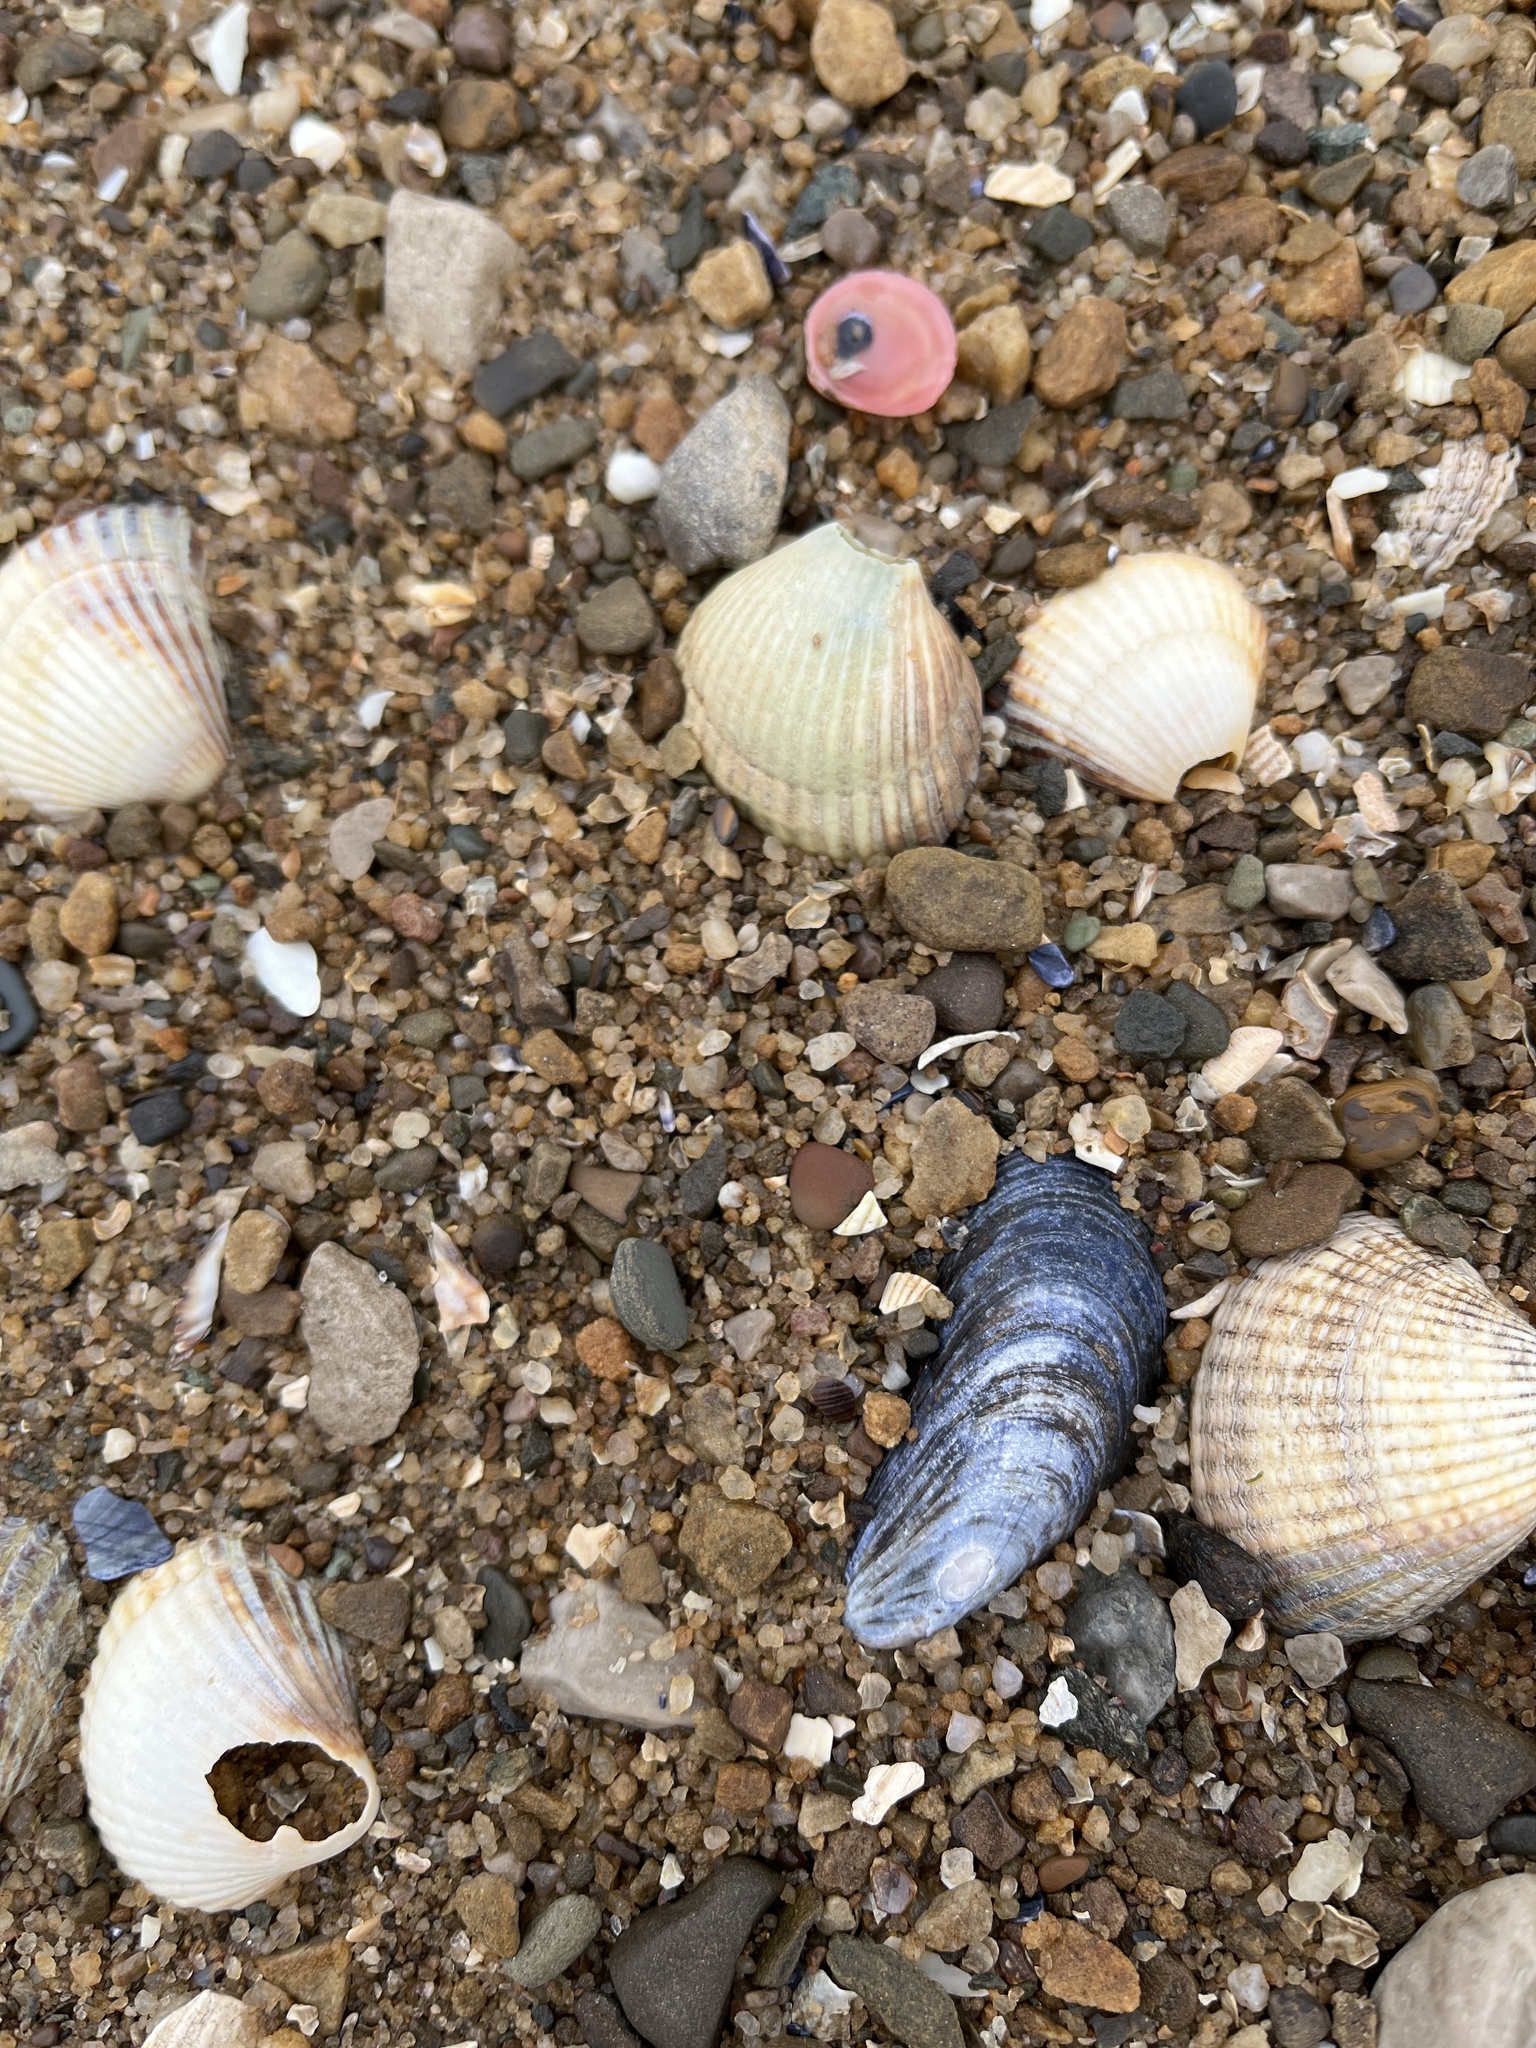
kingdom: Animalia
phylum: Mollusca
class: Bivalvia
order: Mytilida
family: Mytilidae
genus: Mytilus
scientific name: Mytilus edulis
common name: Blue mussel
